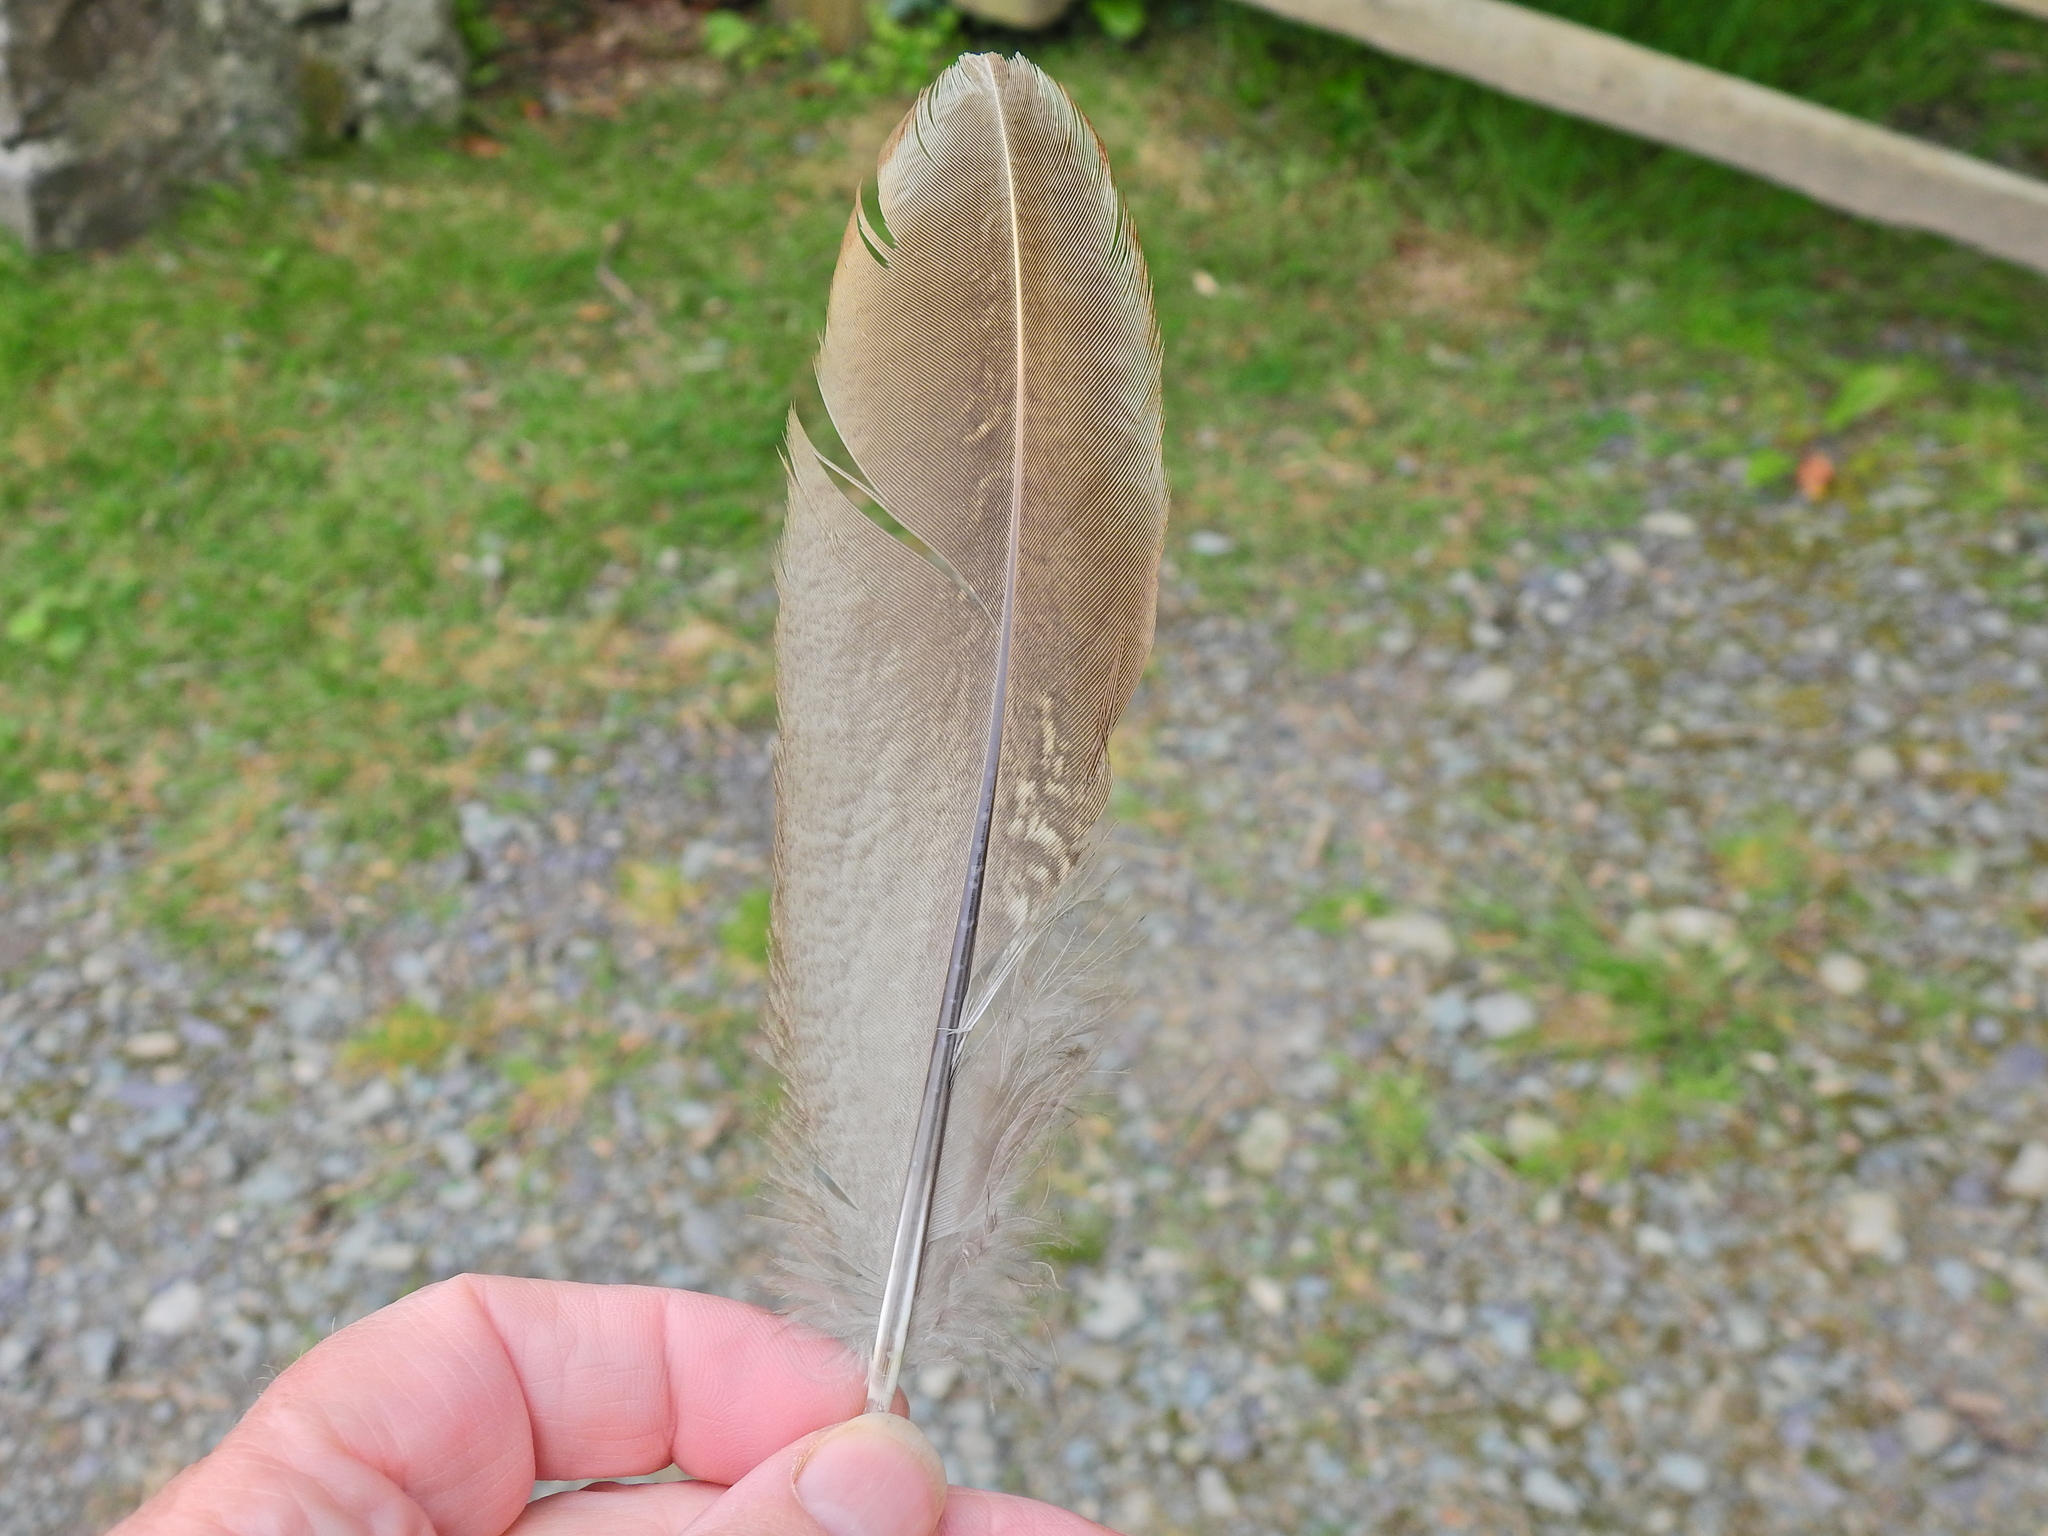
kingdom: Animalia
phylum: Chordata
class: Aves
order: Galliformes
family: Phasianidae
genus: Phasianus
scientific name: Phasianus colchicus
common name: Common pheasant
